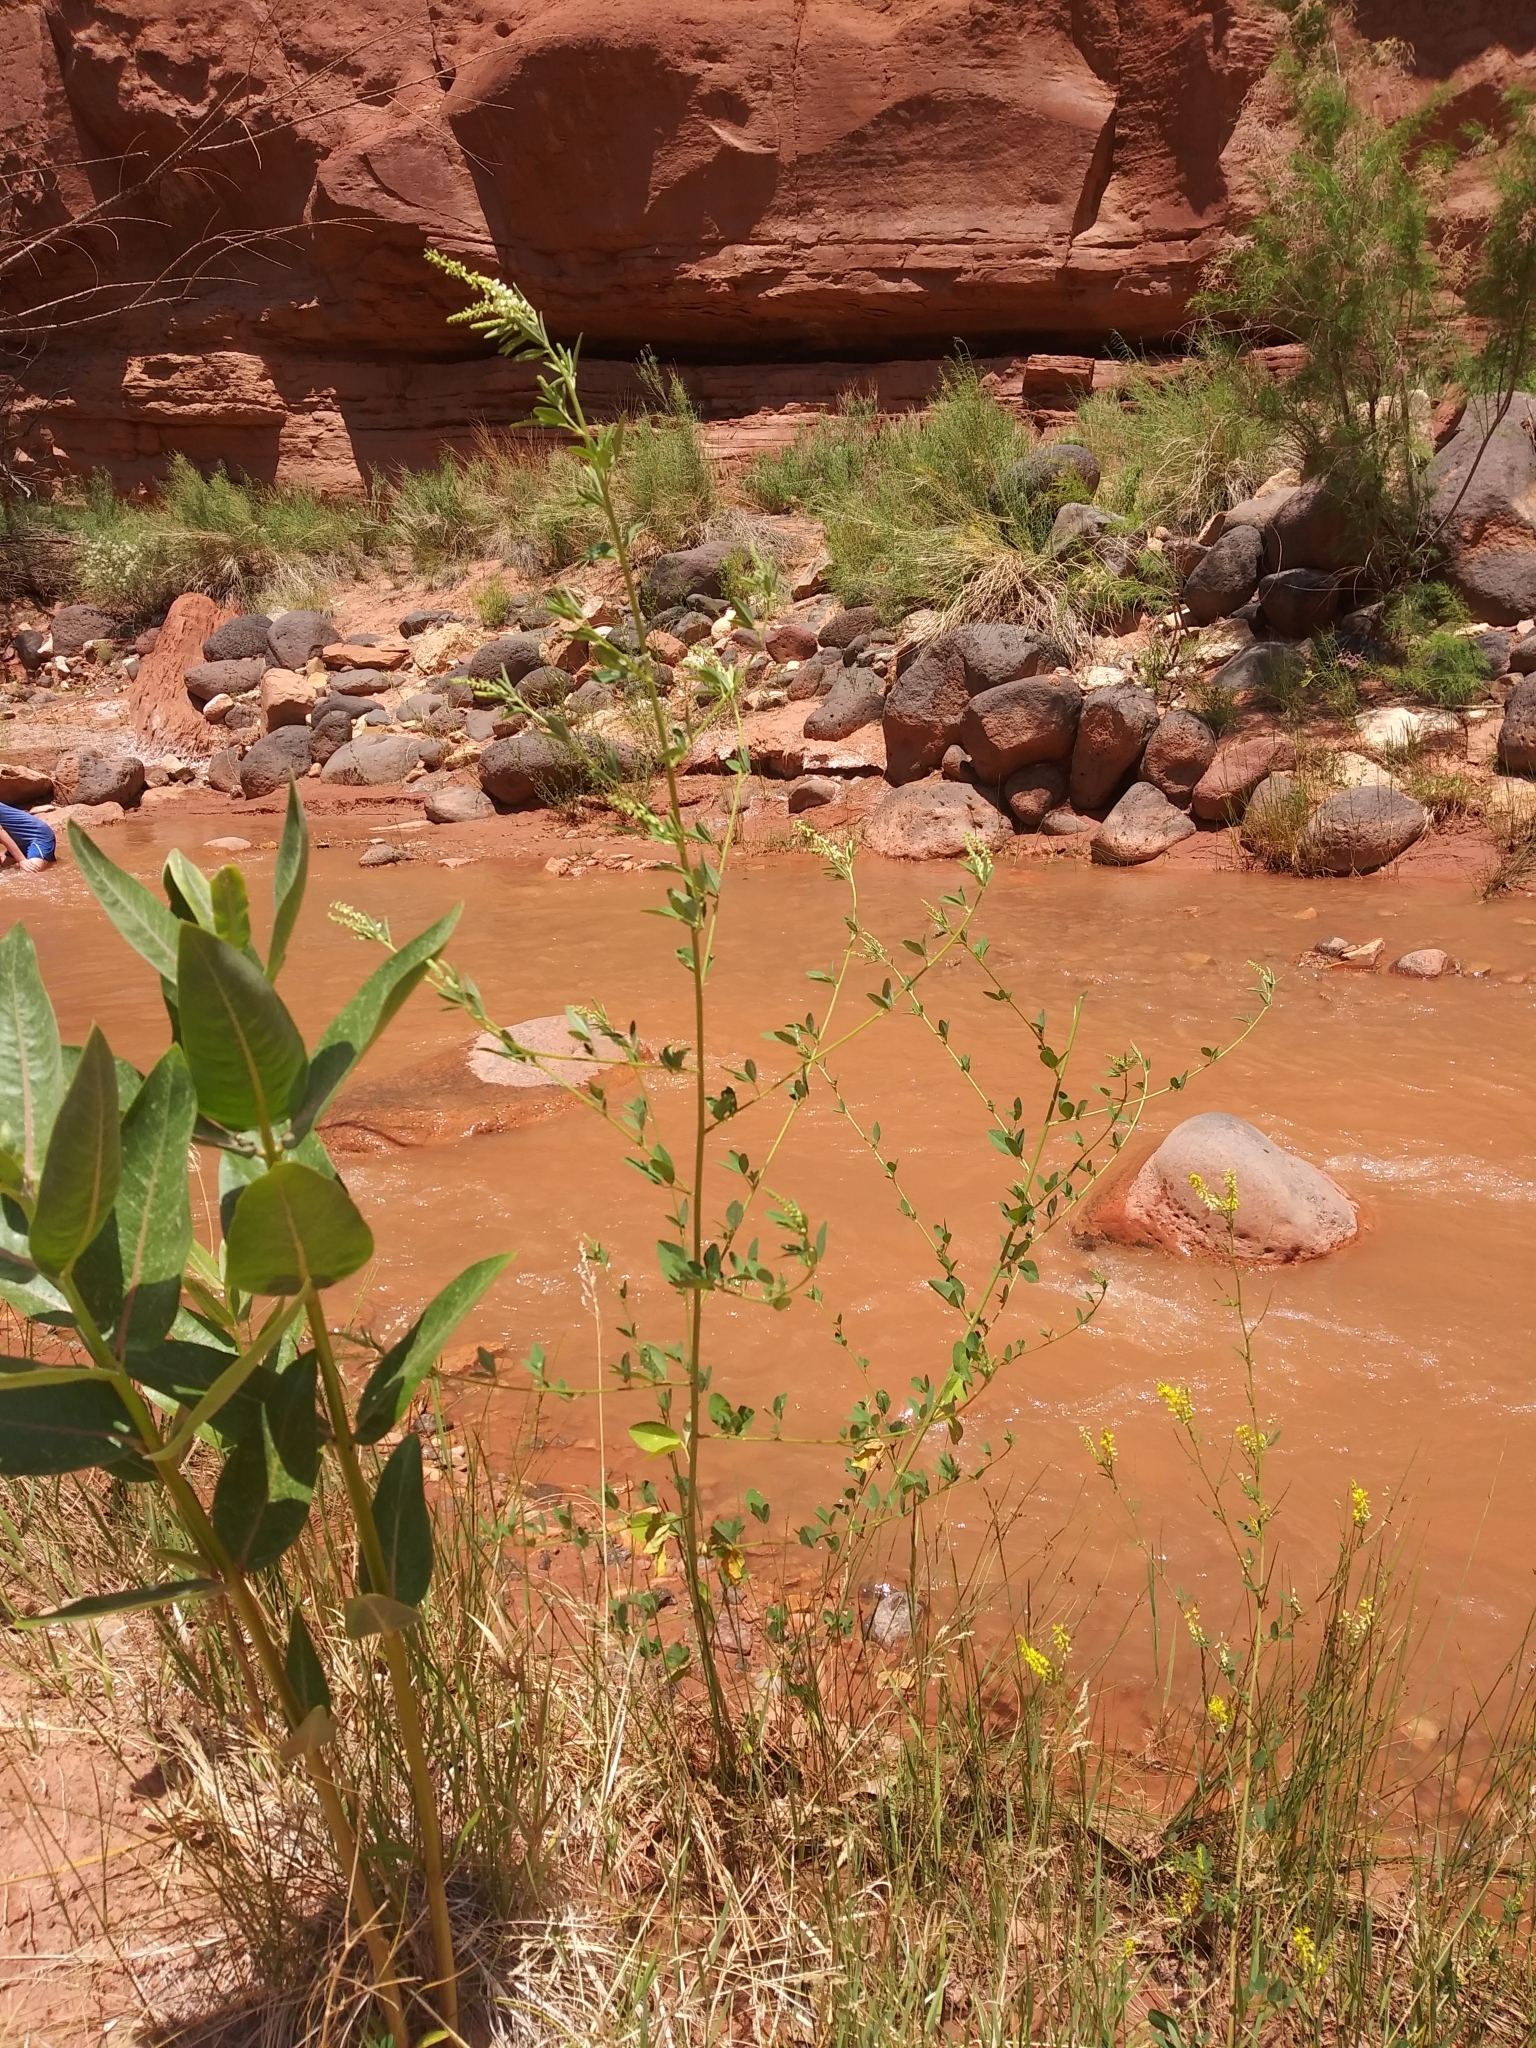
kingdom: Plantae
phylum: Tracheophyta
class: Magnoliopsida
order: Fabales
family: Fabaceae
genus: Melilotus
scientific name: Melilotus albus
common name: White melilot
